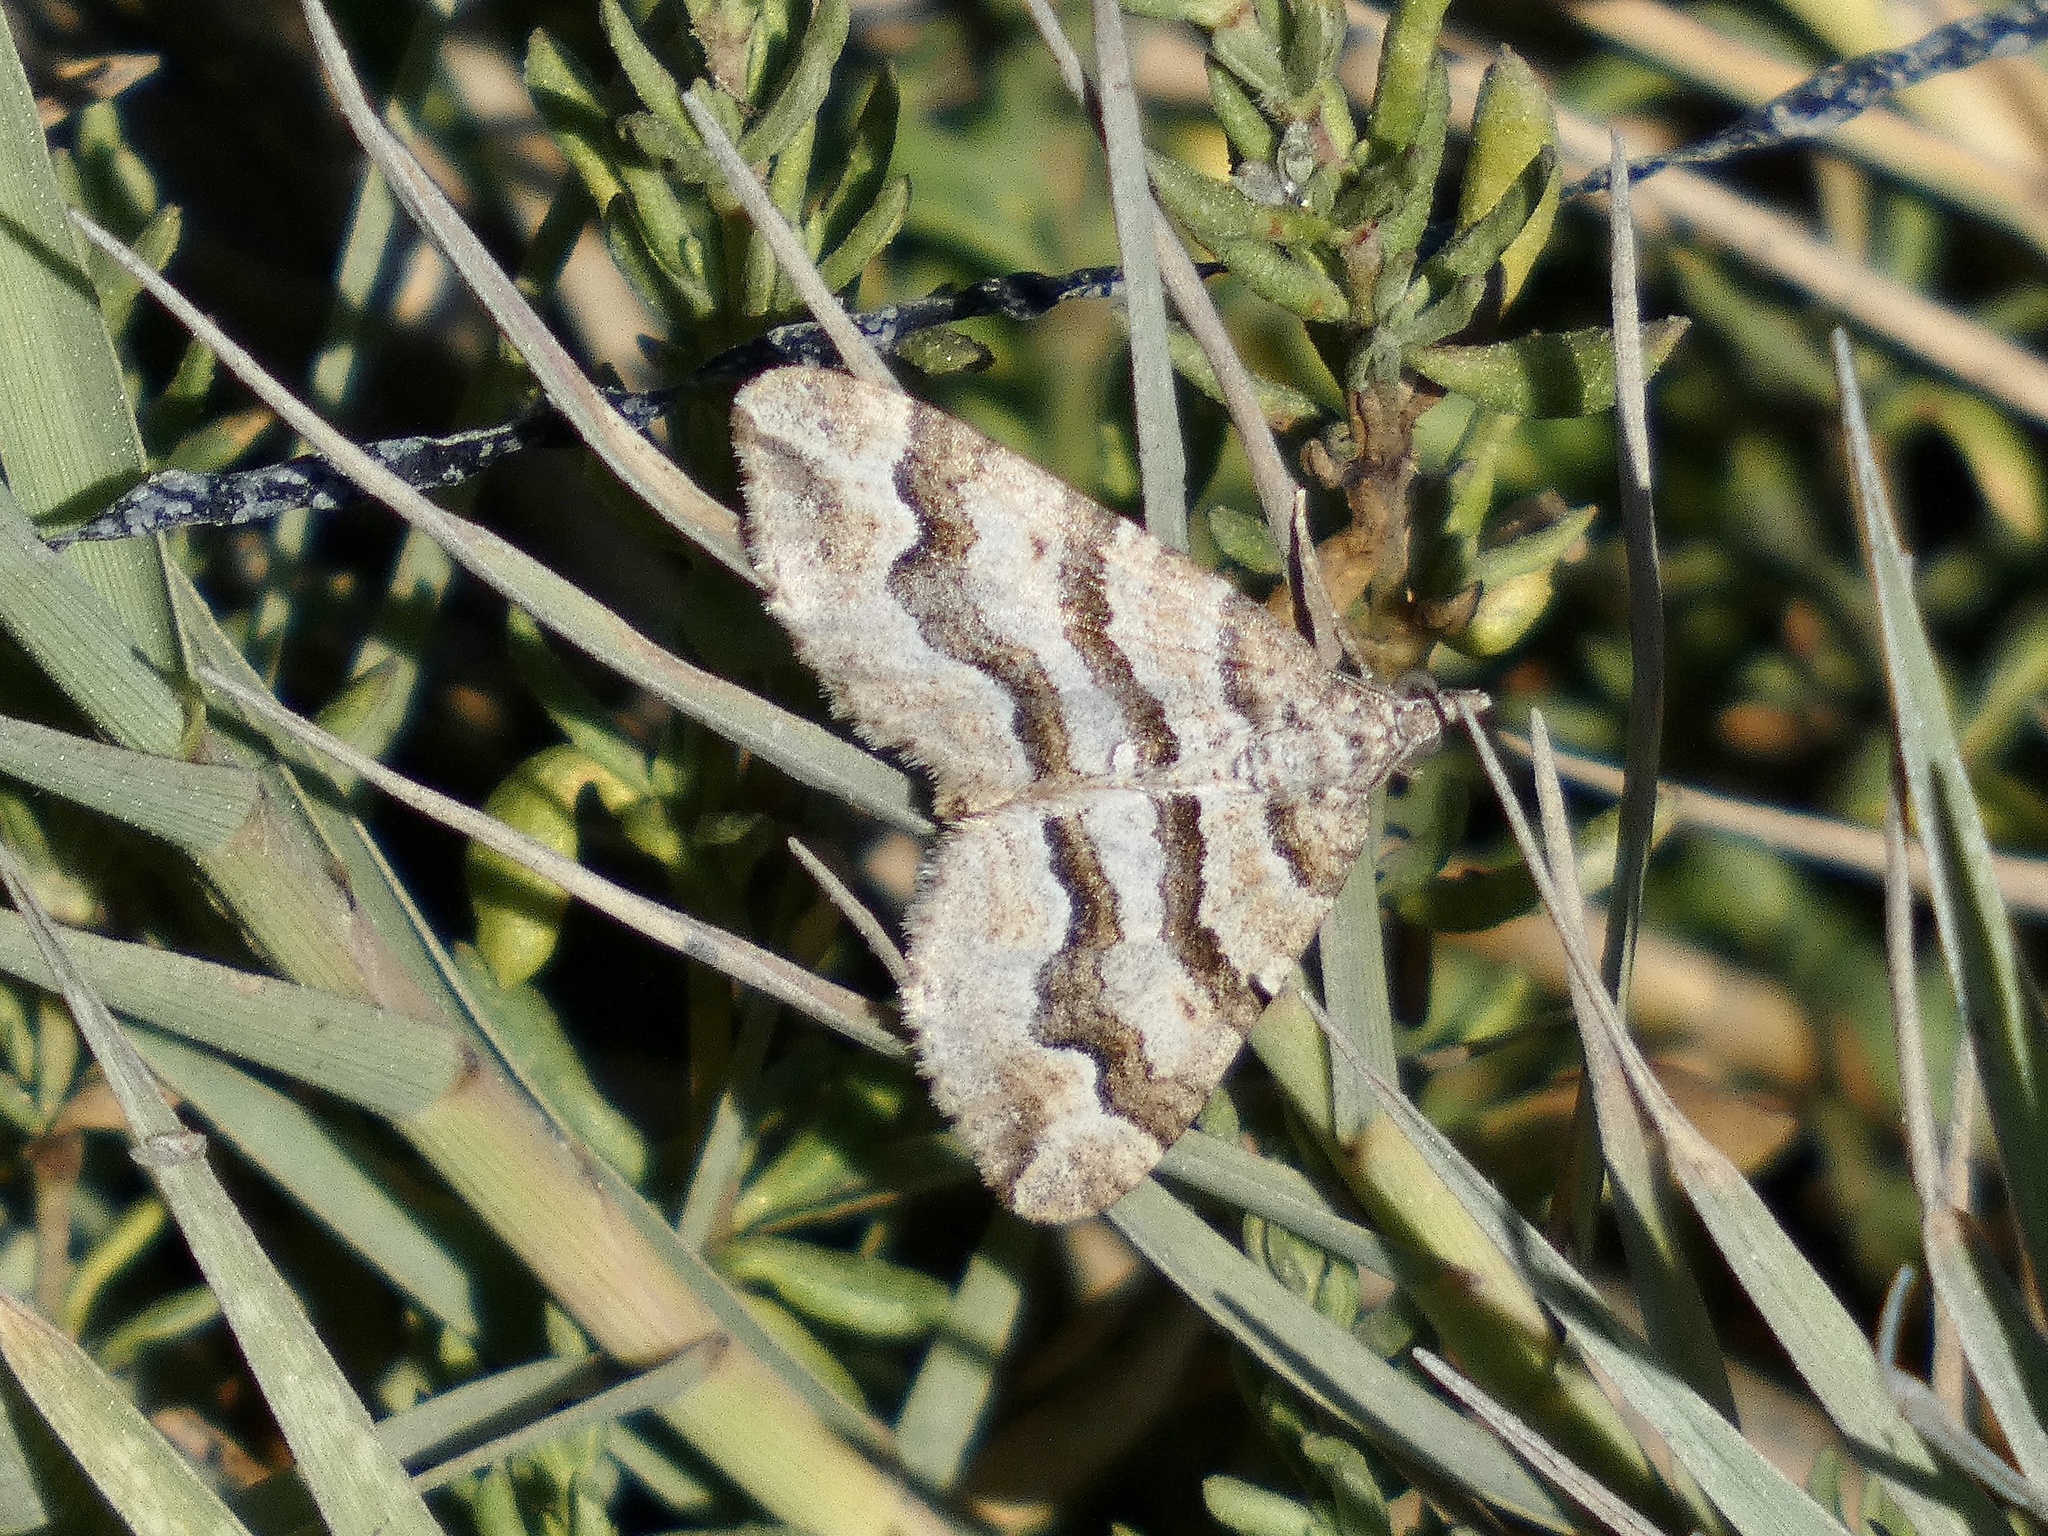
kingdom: Animalia
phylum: Arthropoda
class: Insecta
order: Lepidoptera
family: Geometridae
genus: Perizoma
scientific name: Perizoma epictata
